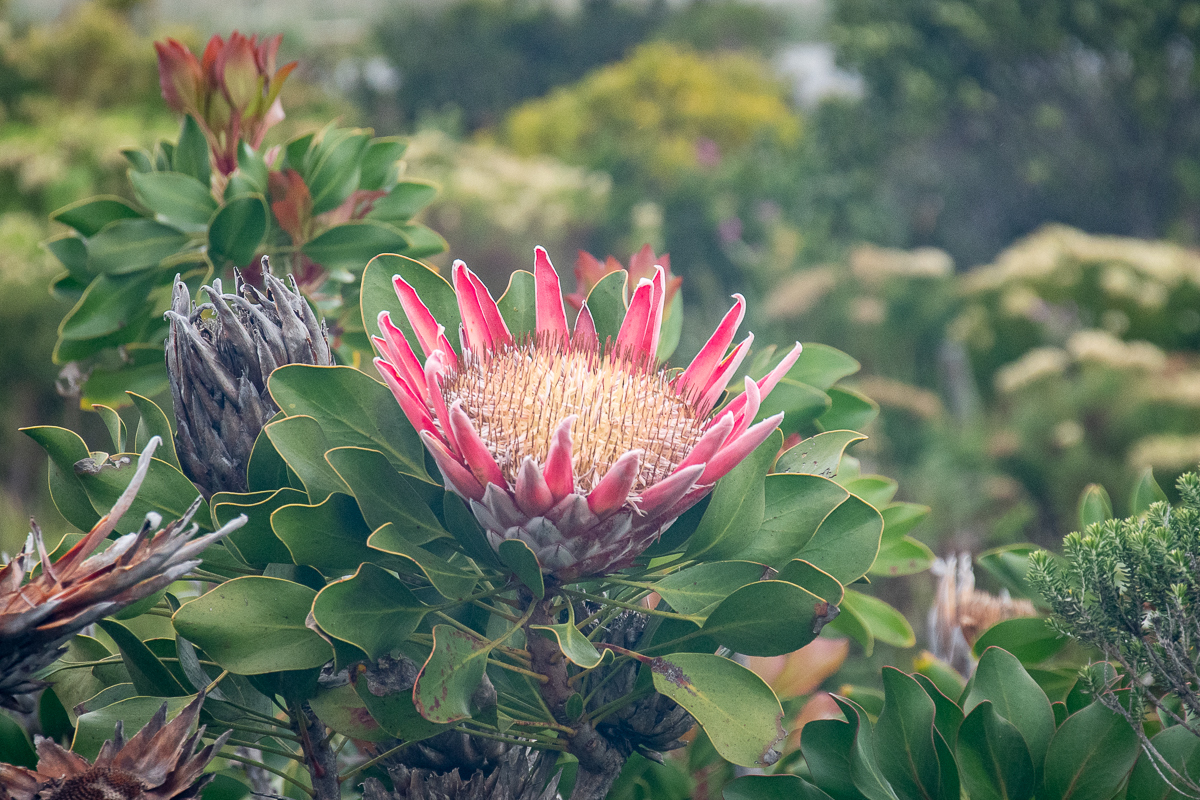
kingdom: Plantae
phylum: Tracheophyta
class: Magnoliopsida
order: Proteales
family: Proteaceae
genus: Protea
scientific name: Protea cynaroides
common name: King protea
